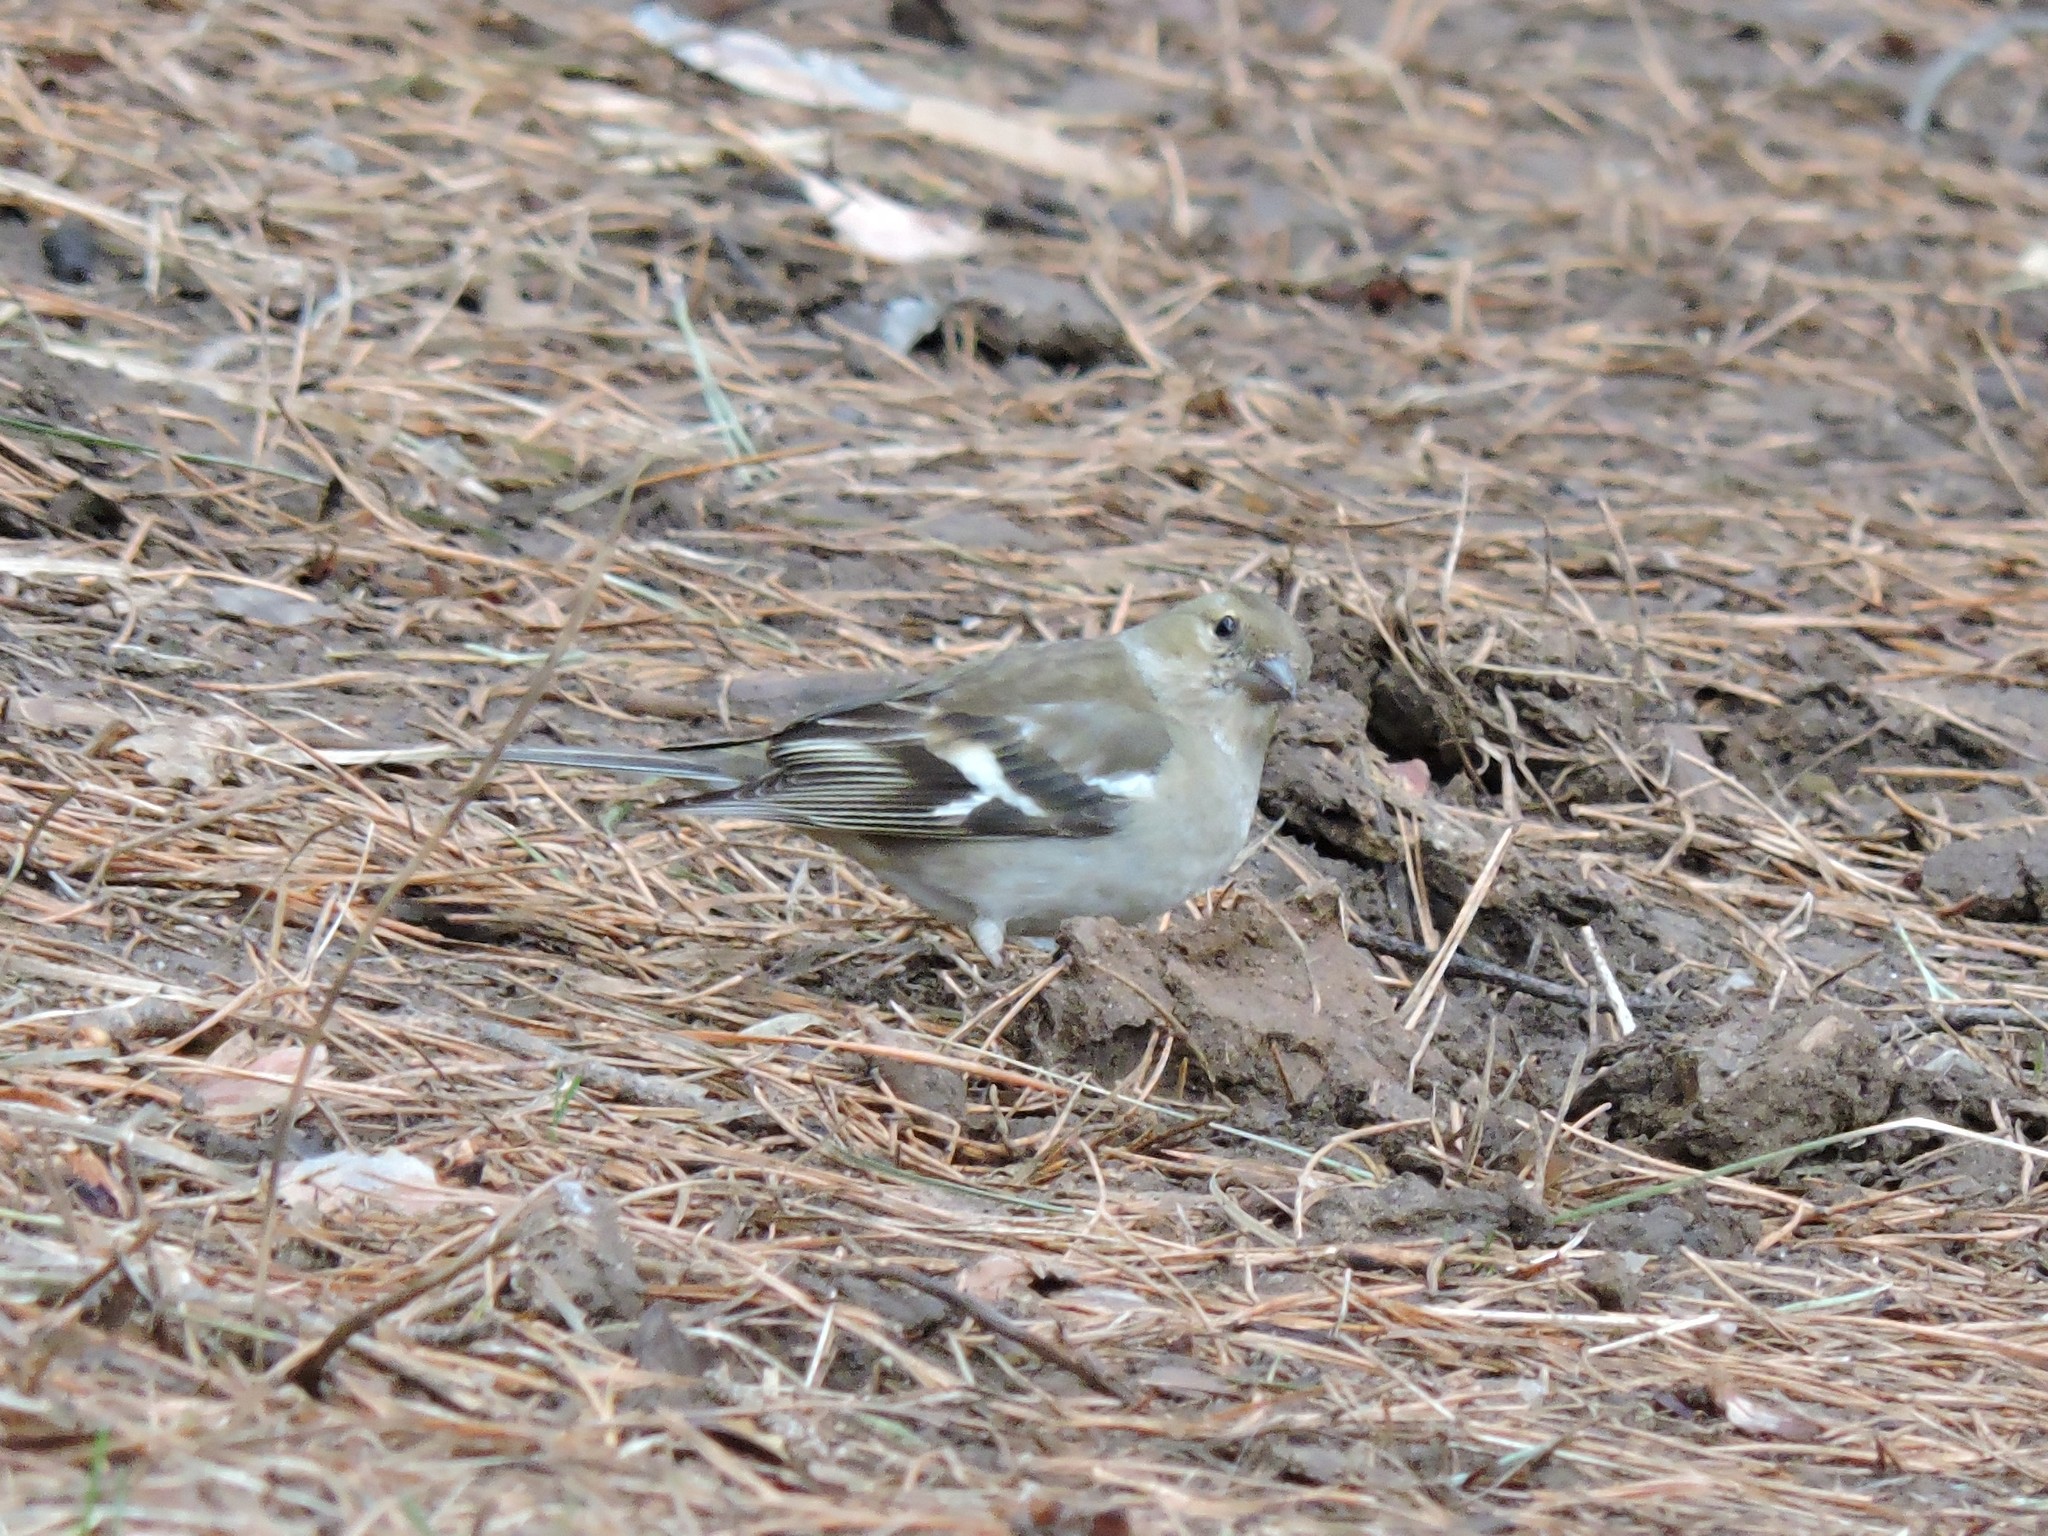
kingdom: Animalia
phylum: Chordata
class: Aves
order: Passeriformes
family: Fringillidae
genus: Fringilla
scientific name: Fringilla coelebs
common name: Common chaffinch
